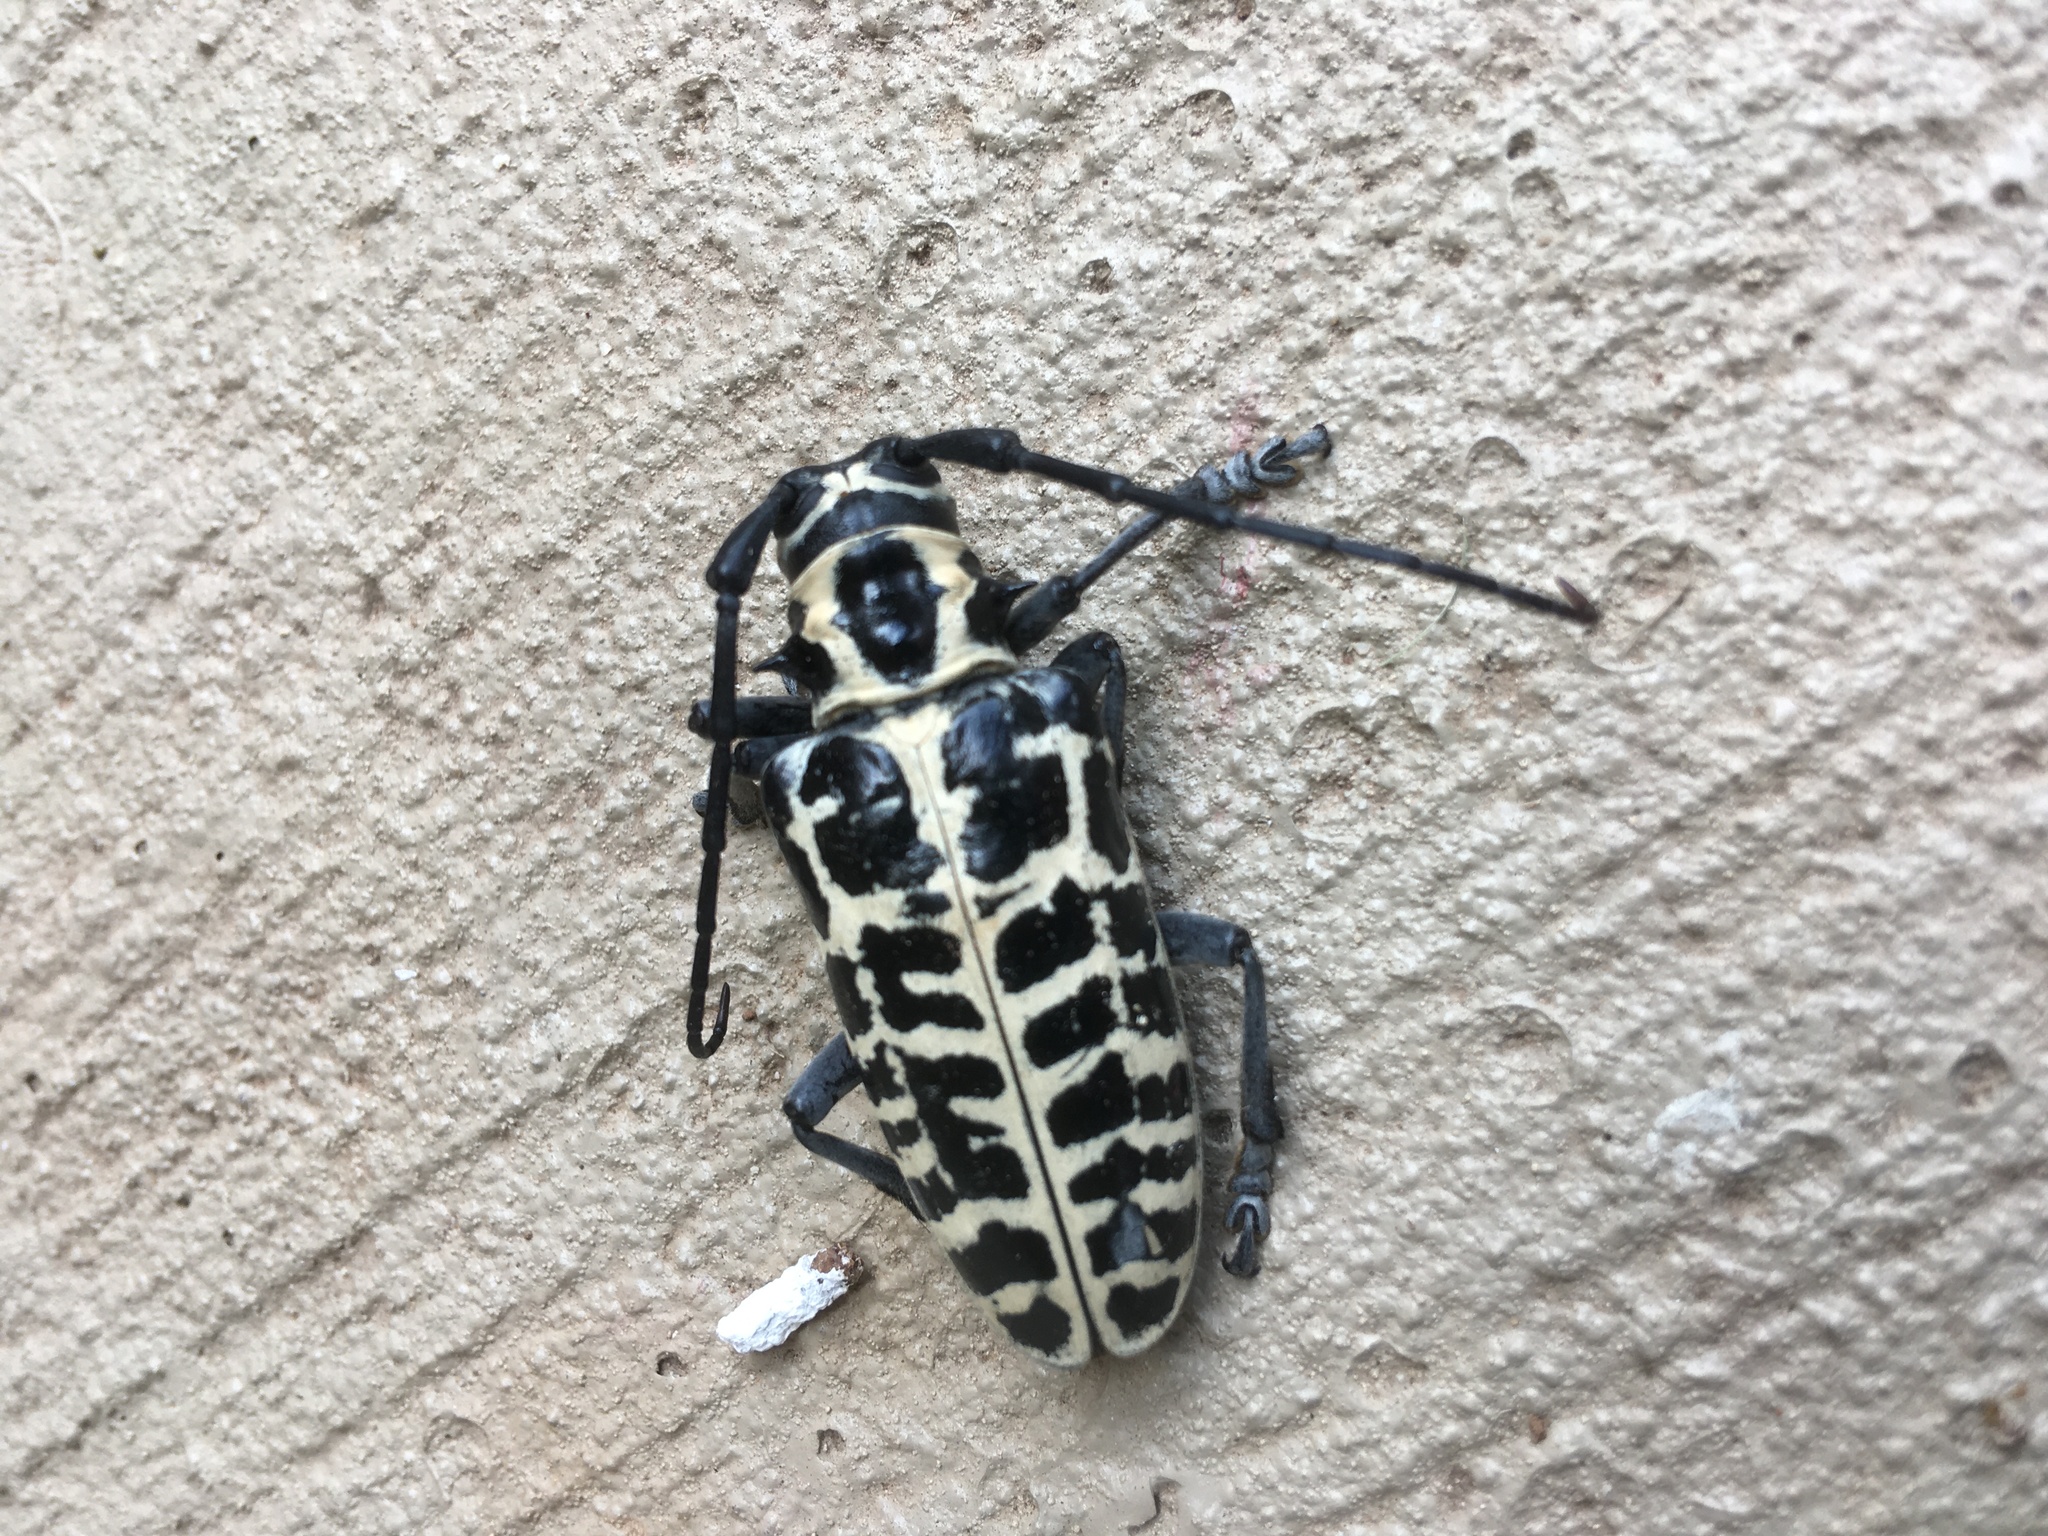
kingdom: Animalia
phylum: Arthropoda
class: Insecta
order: Coleoptera
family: Cerambycidae
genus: Plectrodera
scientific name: Plectrodera scalator
